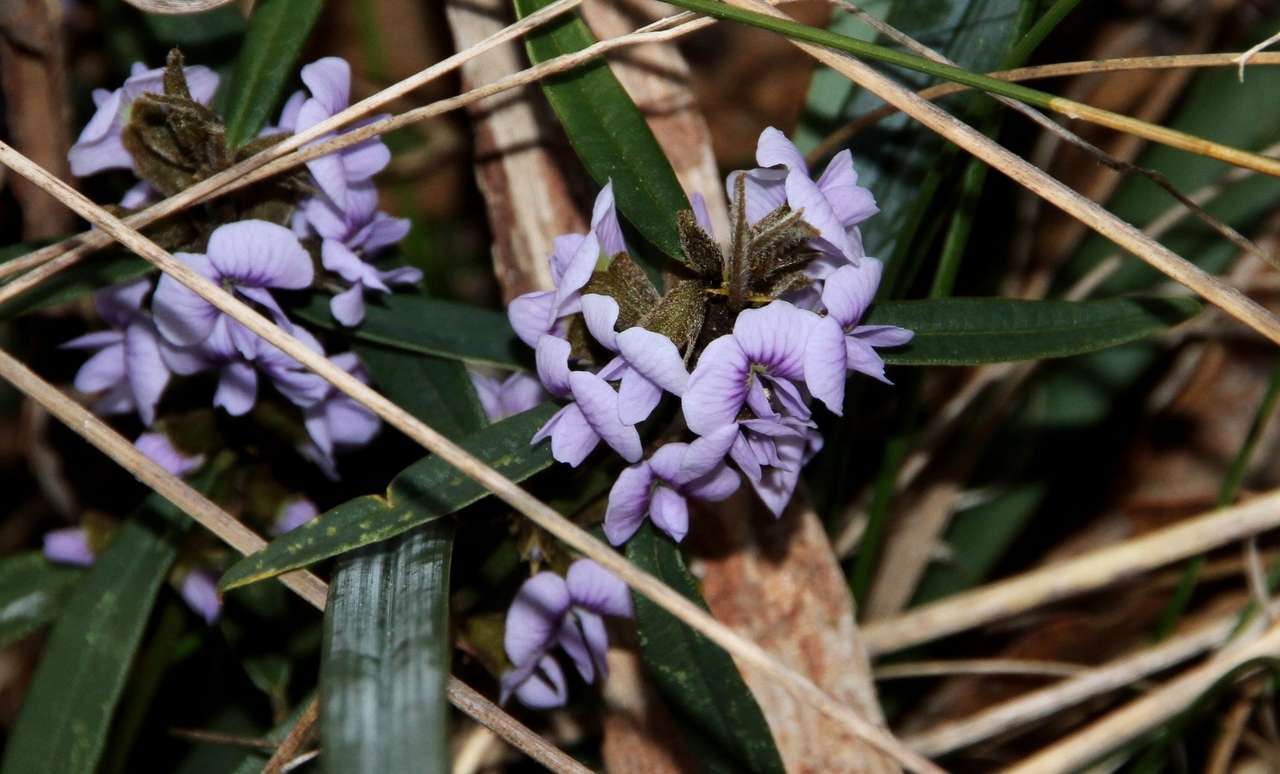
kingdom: Plantae
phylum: Tracheophyta
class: Magnoliopsida
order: Fabales
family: Fabaceae
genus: Hovea
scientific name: Hovea heterophylla
